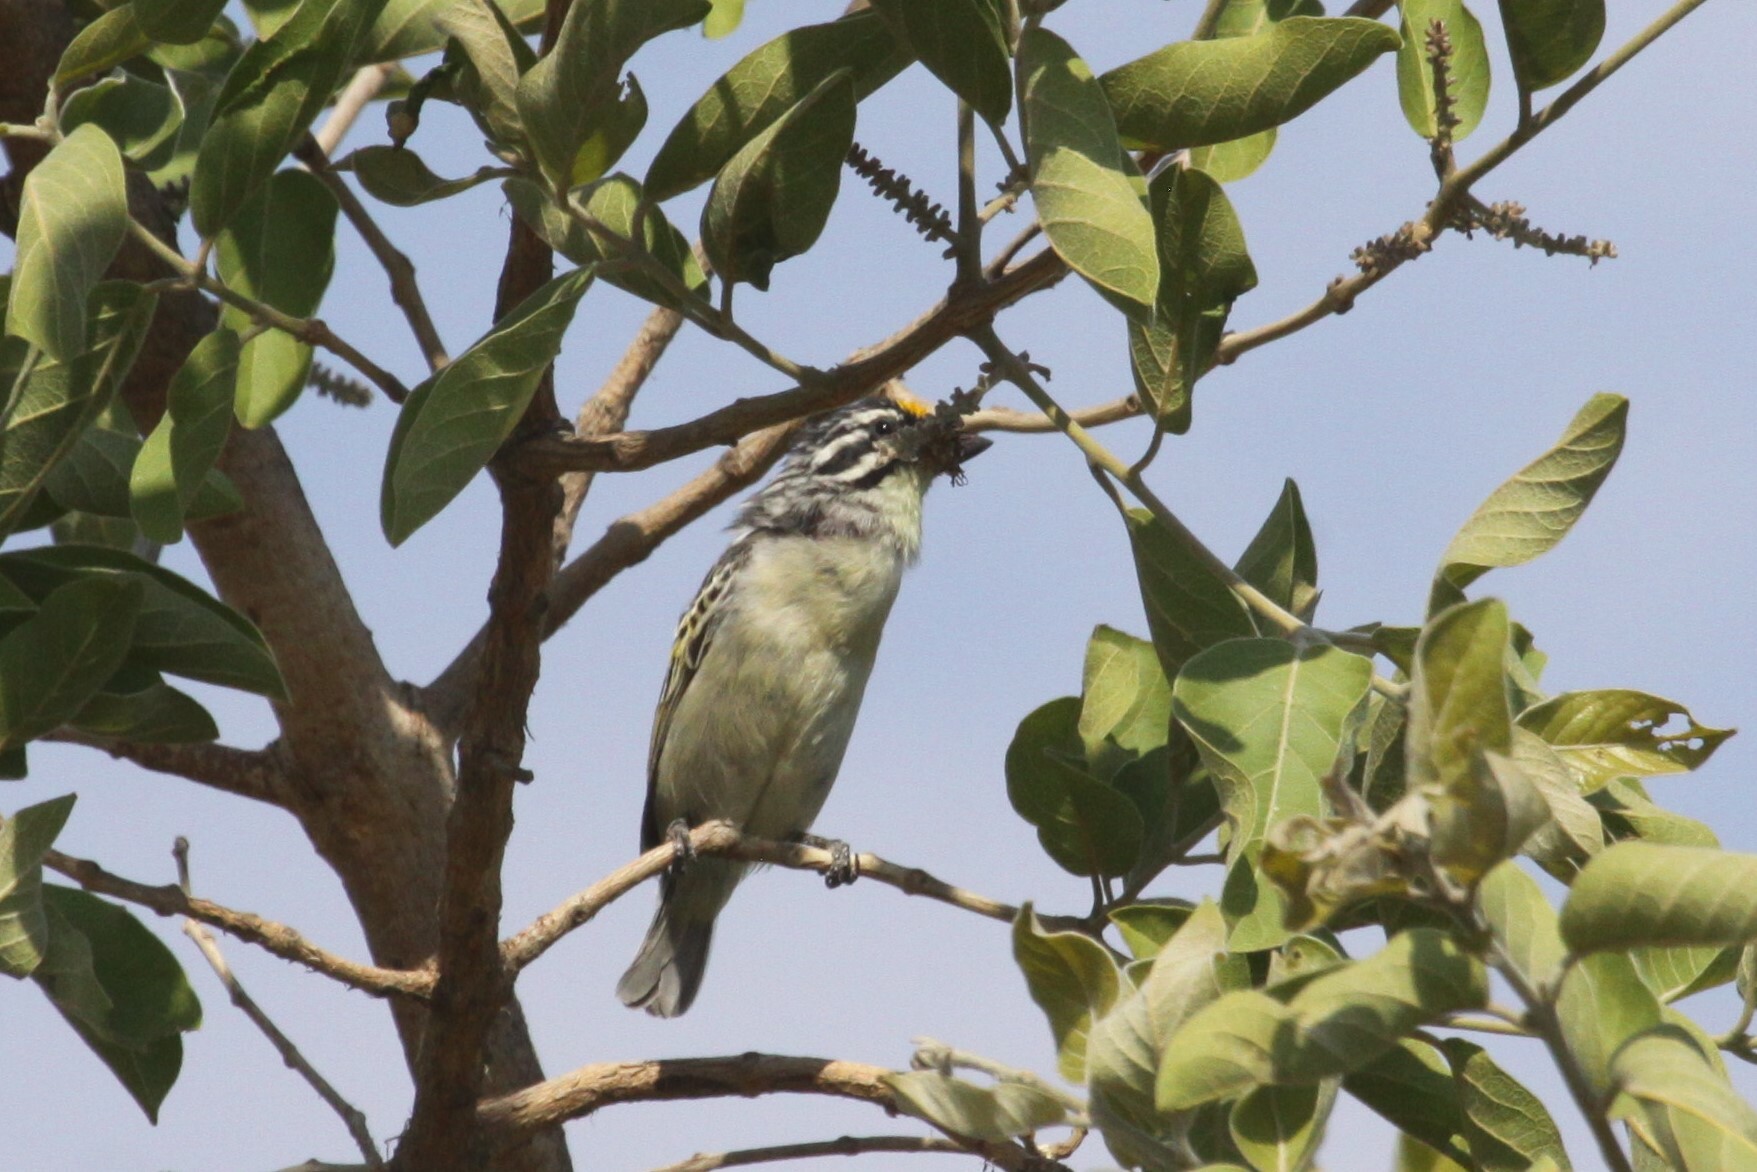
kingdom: Animalia
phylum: Chordata
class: Aves
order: Piciformes
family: Lybiidae
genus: Pogoniulus
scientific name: Pogoniulus chrysoconus
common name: Yellow-fronted tinkerbird
